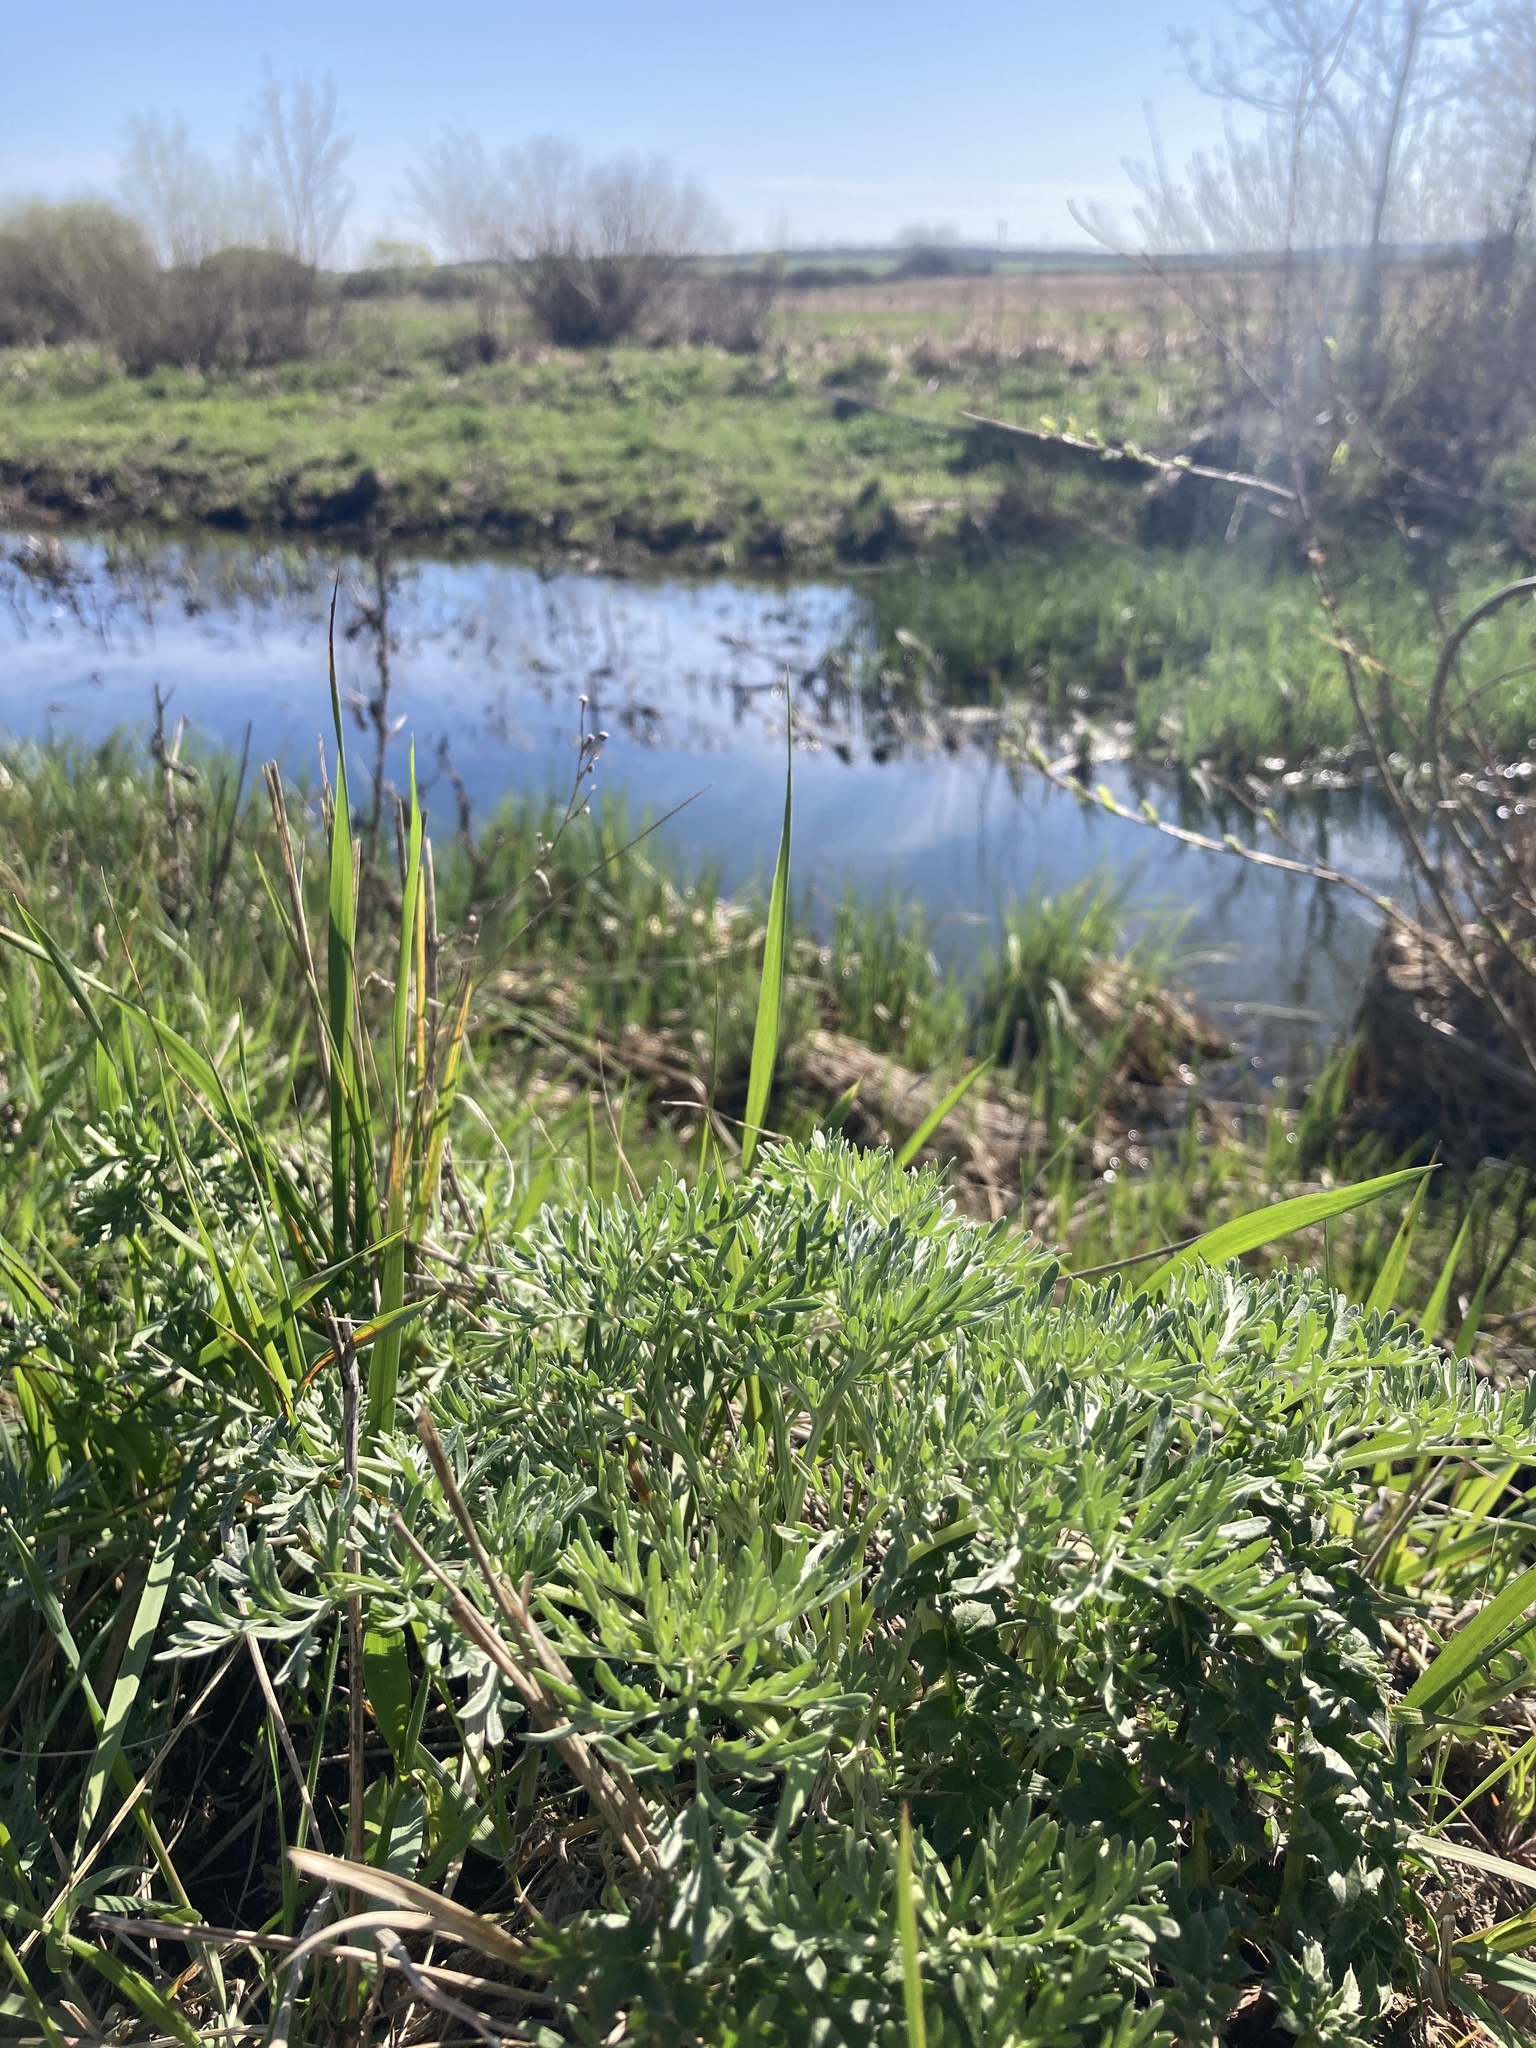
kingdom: Plantae
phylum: Tracheophyta
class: Magnoliopsida
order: Asterales
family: Asteraceae
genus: Artemisia
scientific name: Artemisia absinthium
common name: Wormwood
